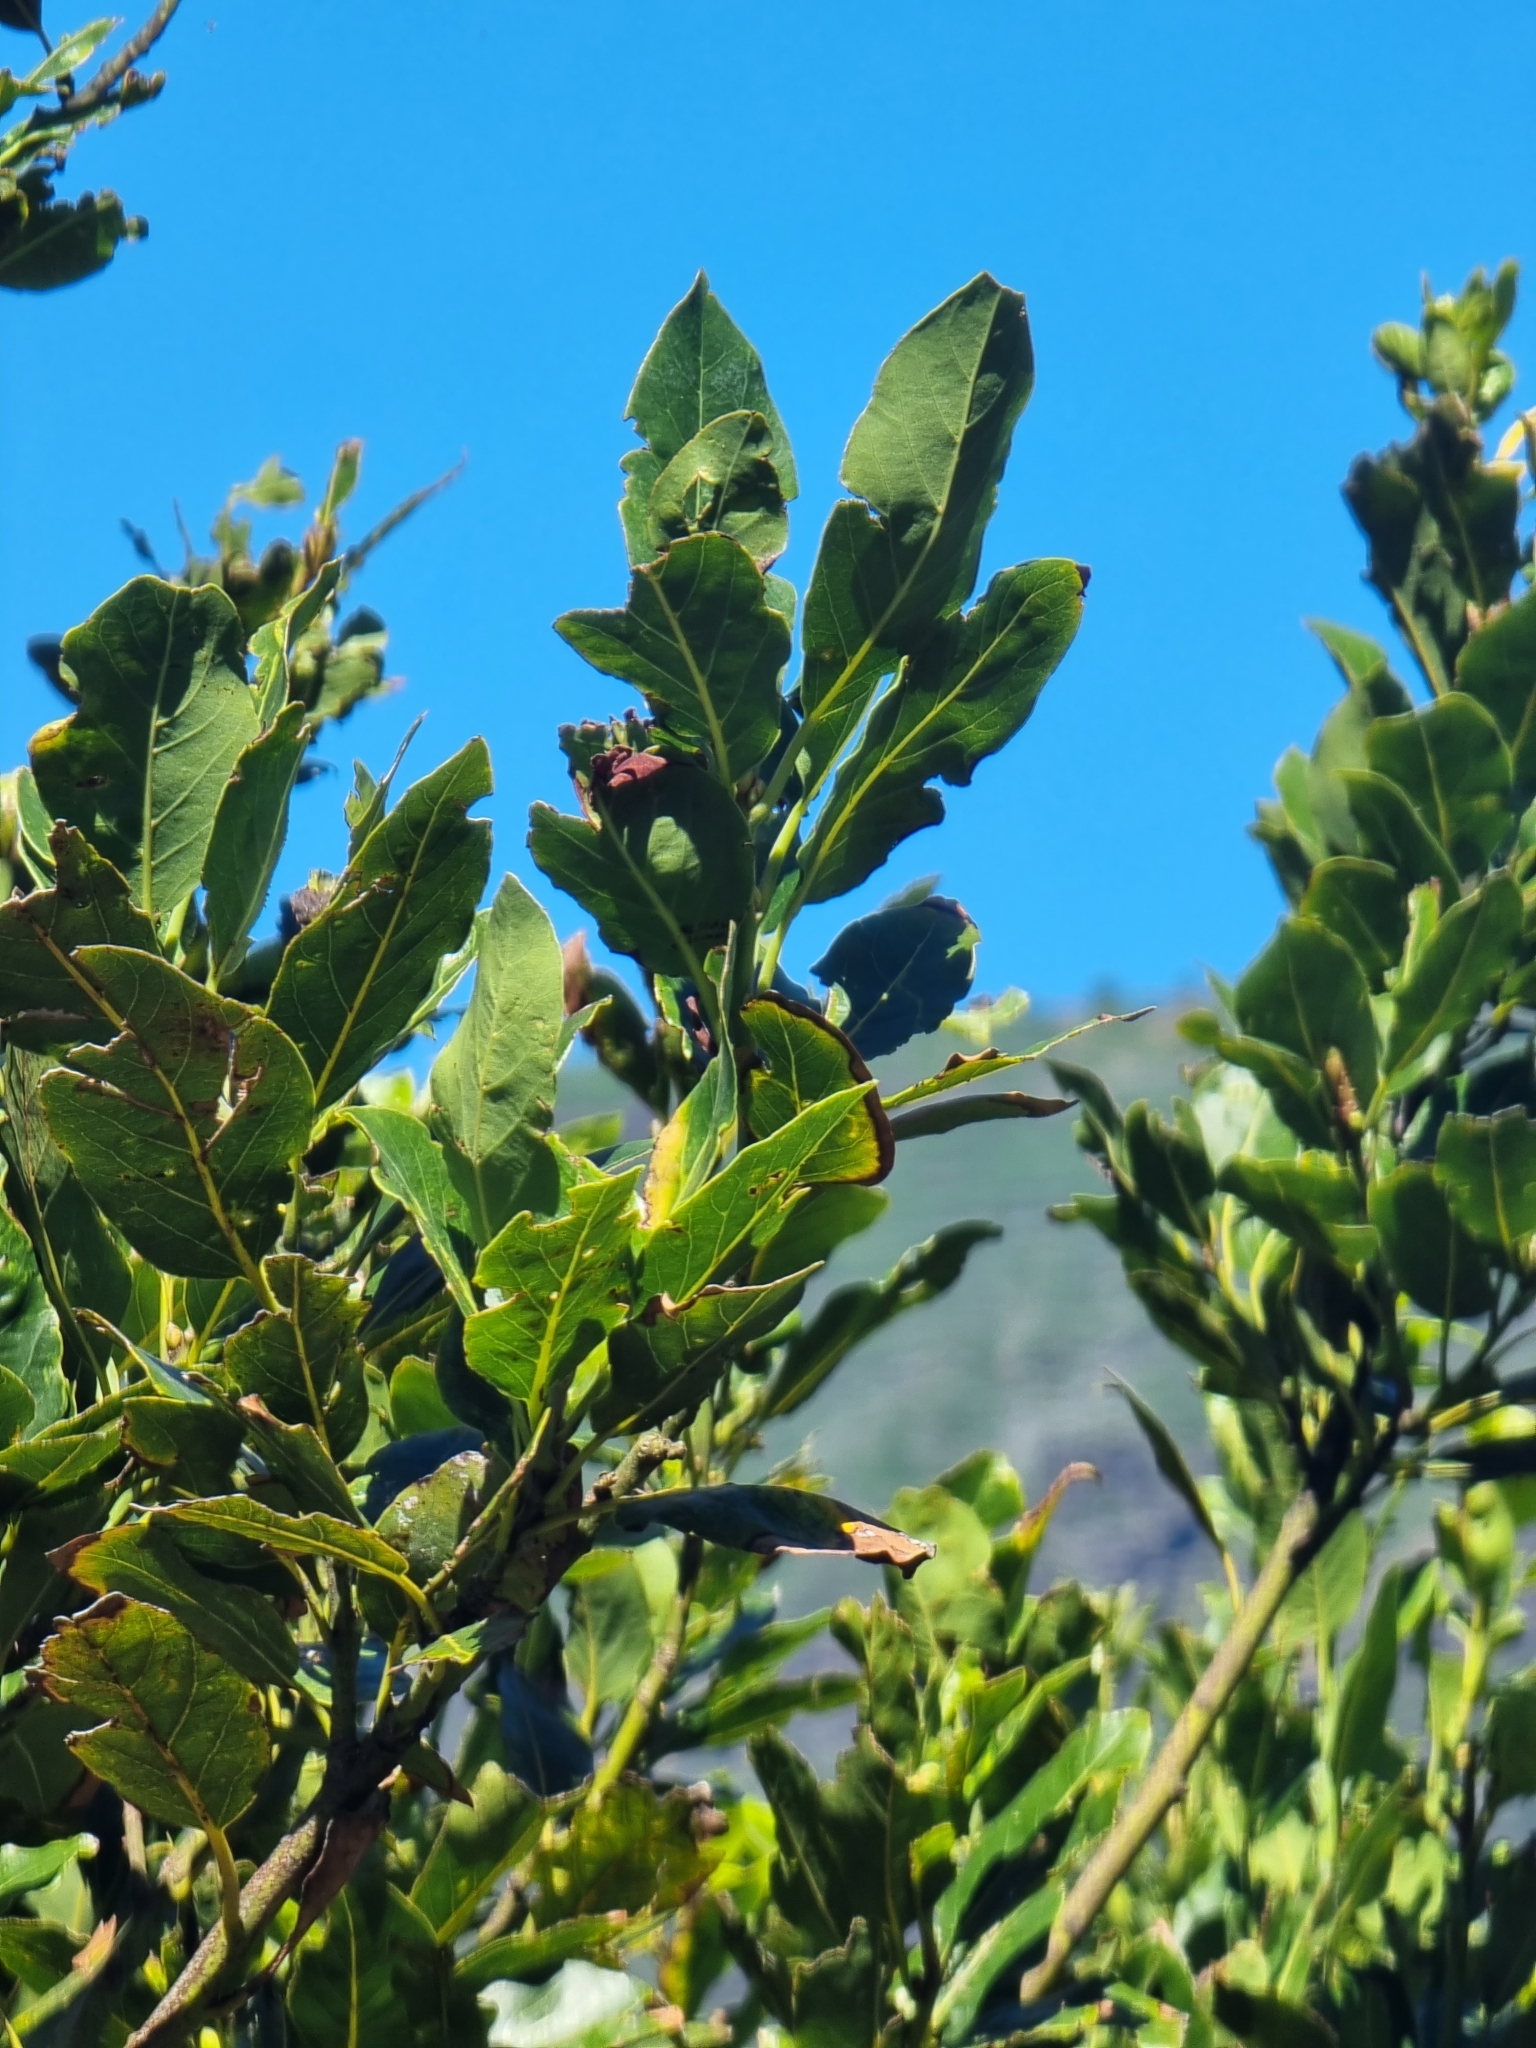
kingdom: Plantae
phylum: Tracheophyta
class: Magnoliopsida
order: Laurales
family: Lauraceae
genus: Laurus
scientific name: Laurus novocanariensis
